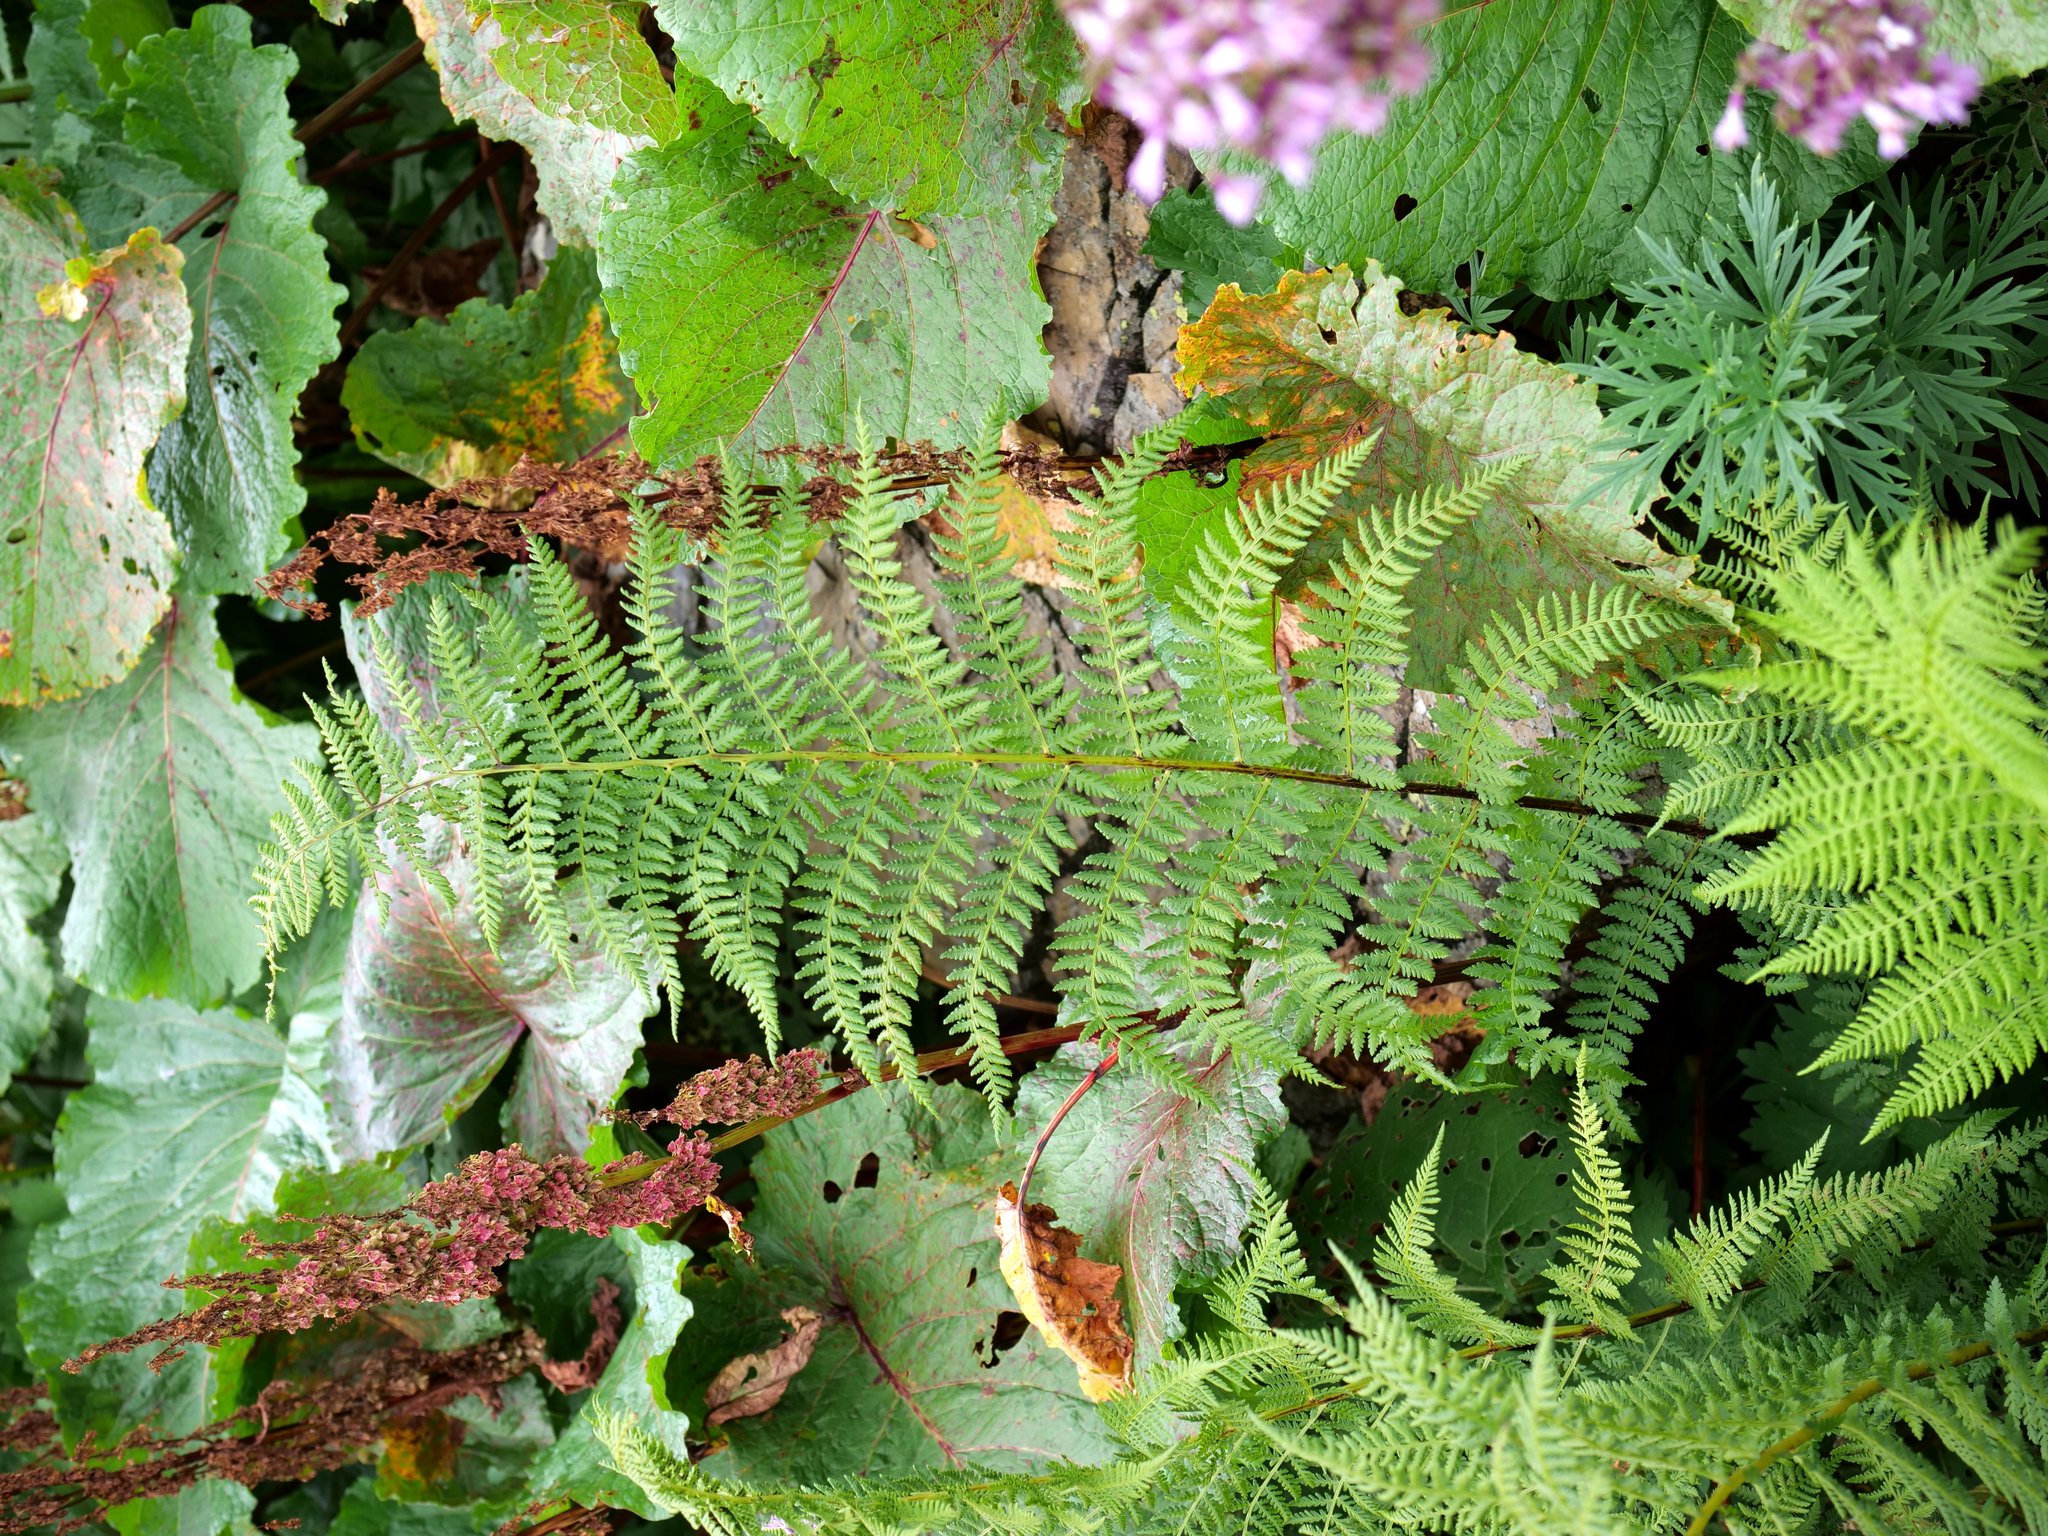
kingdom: Plantae
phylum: Tracheophyta
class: Polypodiopsida
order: Polypodiales
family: Athyriaceae
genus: Pseudathyrium
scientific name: Pseudathyrium alpestre
